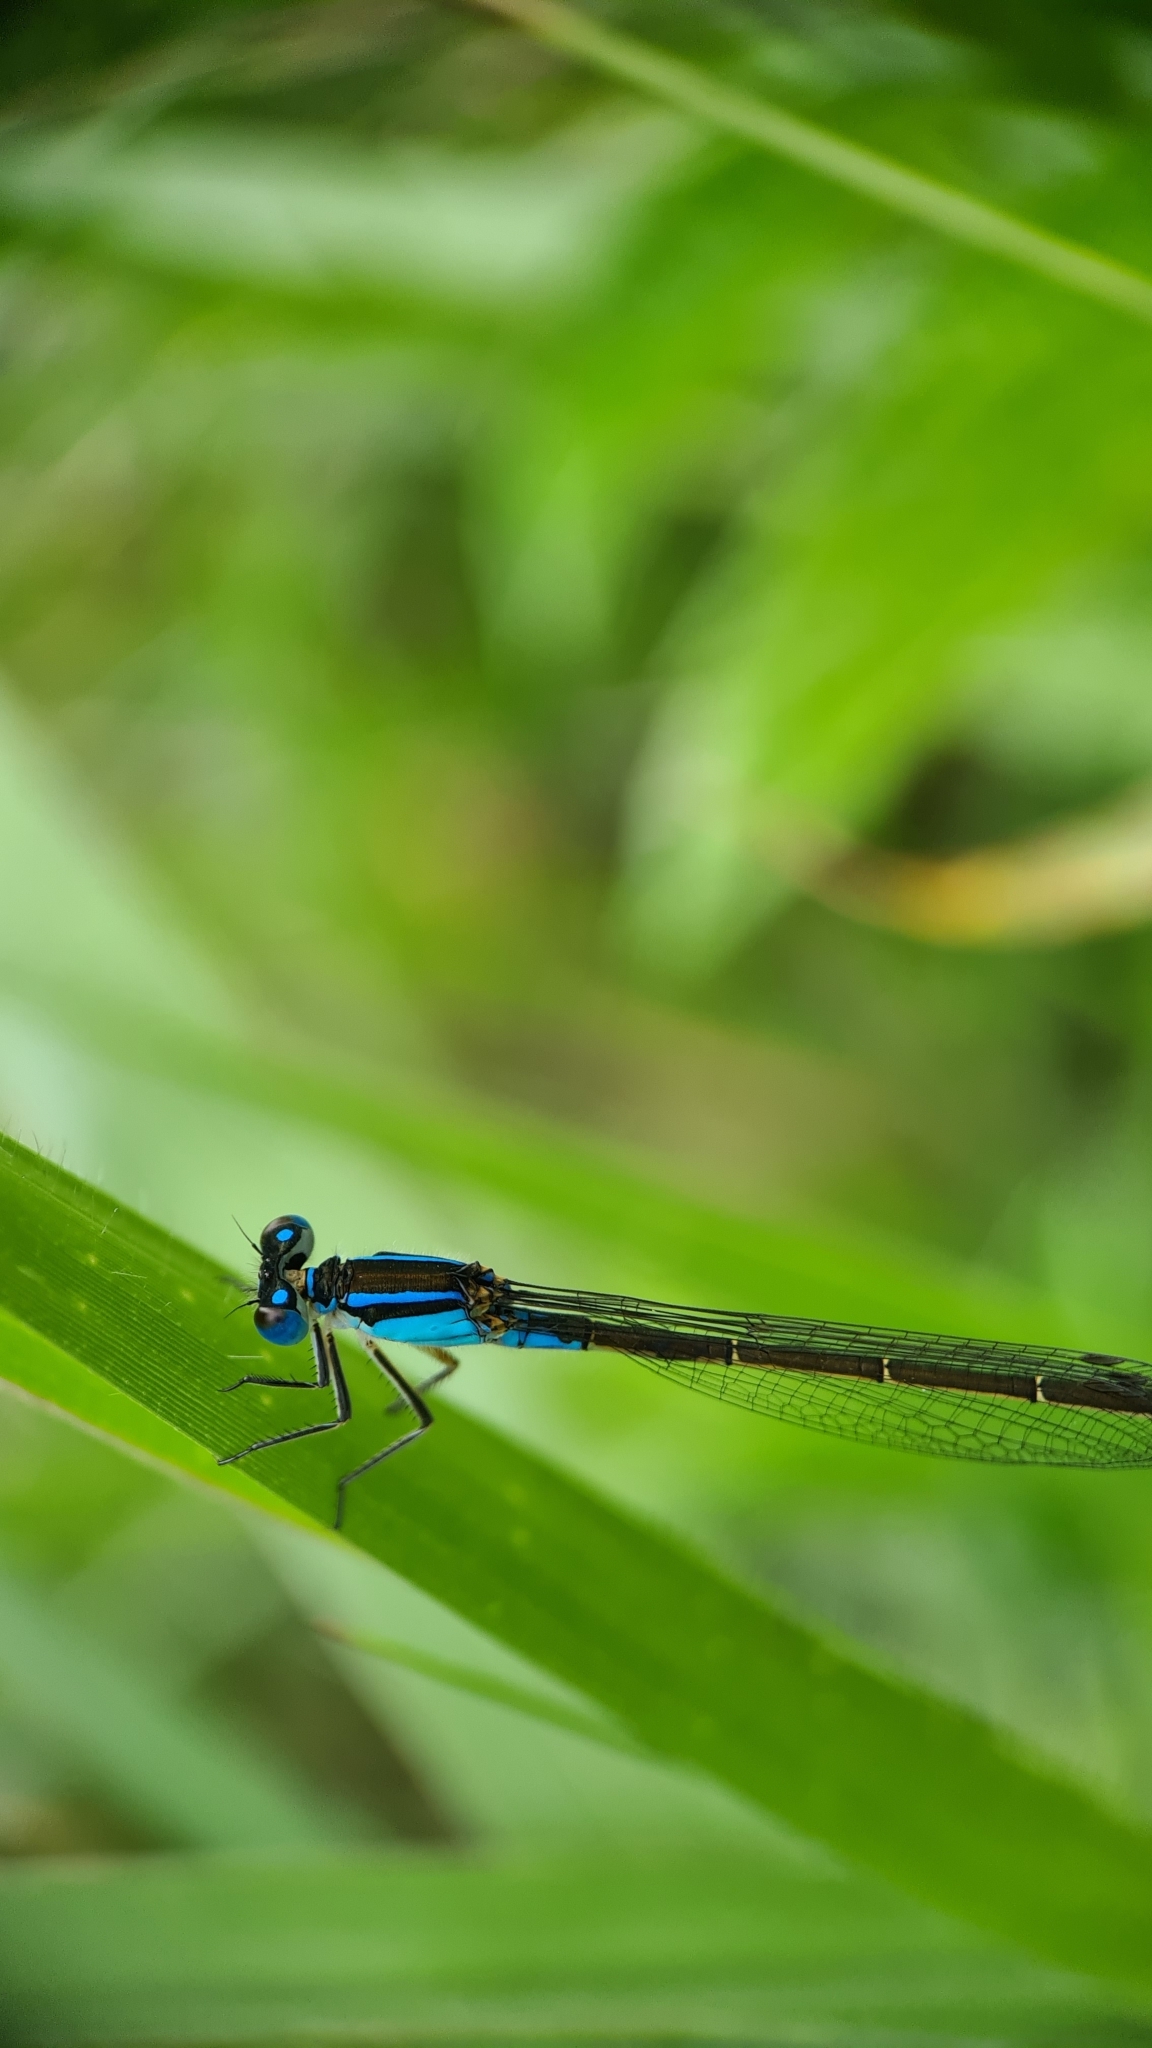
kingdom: Animalia
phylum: Arthropoda
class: Insecta
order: Odonata
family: Coenagrionidae
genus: Ischnura
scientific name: Ischnura heterosticta
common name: Common bluetail
